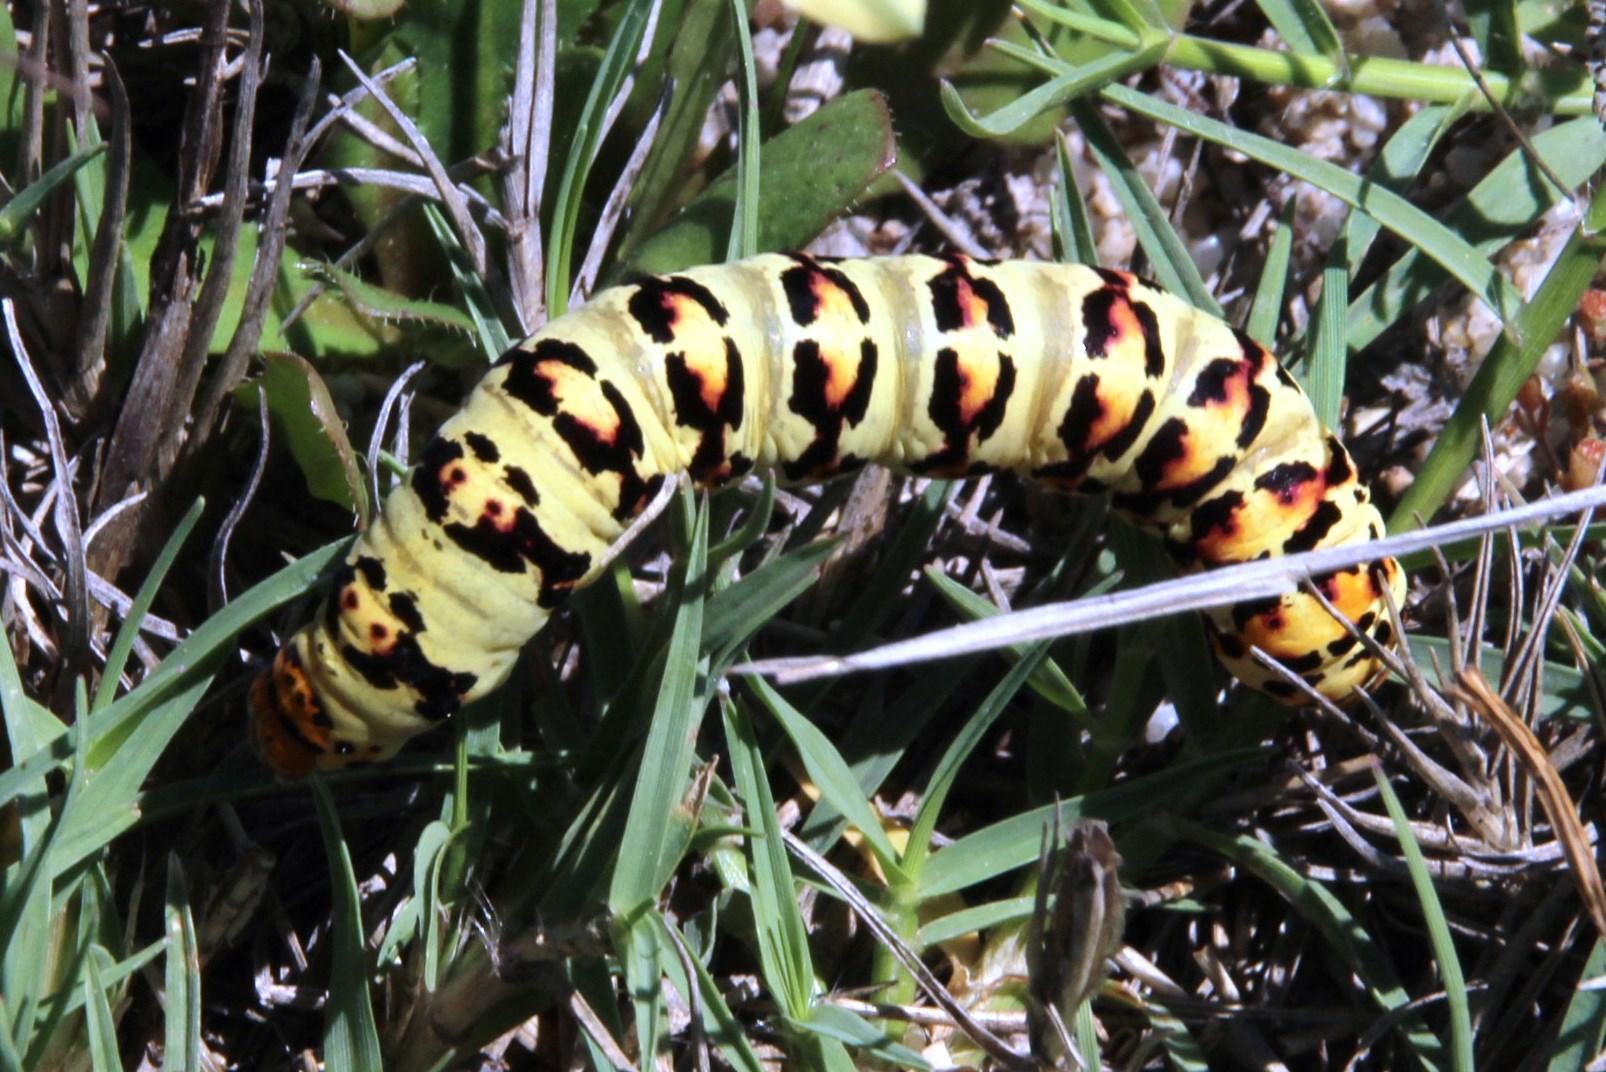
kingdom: Animalia
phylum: Arthropoda
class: Insecta
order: Lepidoptera
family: Noctuidae
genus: Diaphone
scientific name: Diaphone eumela
